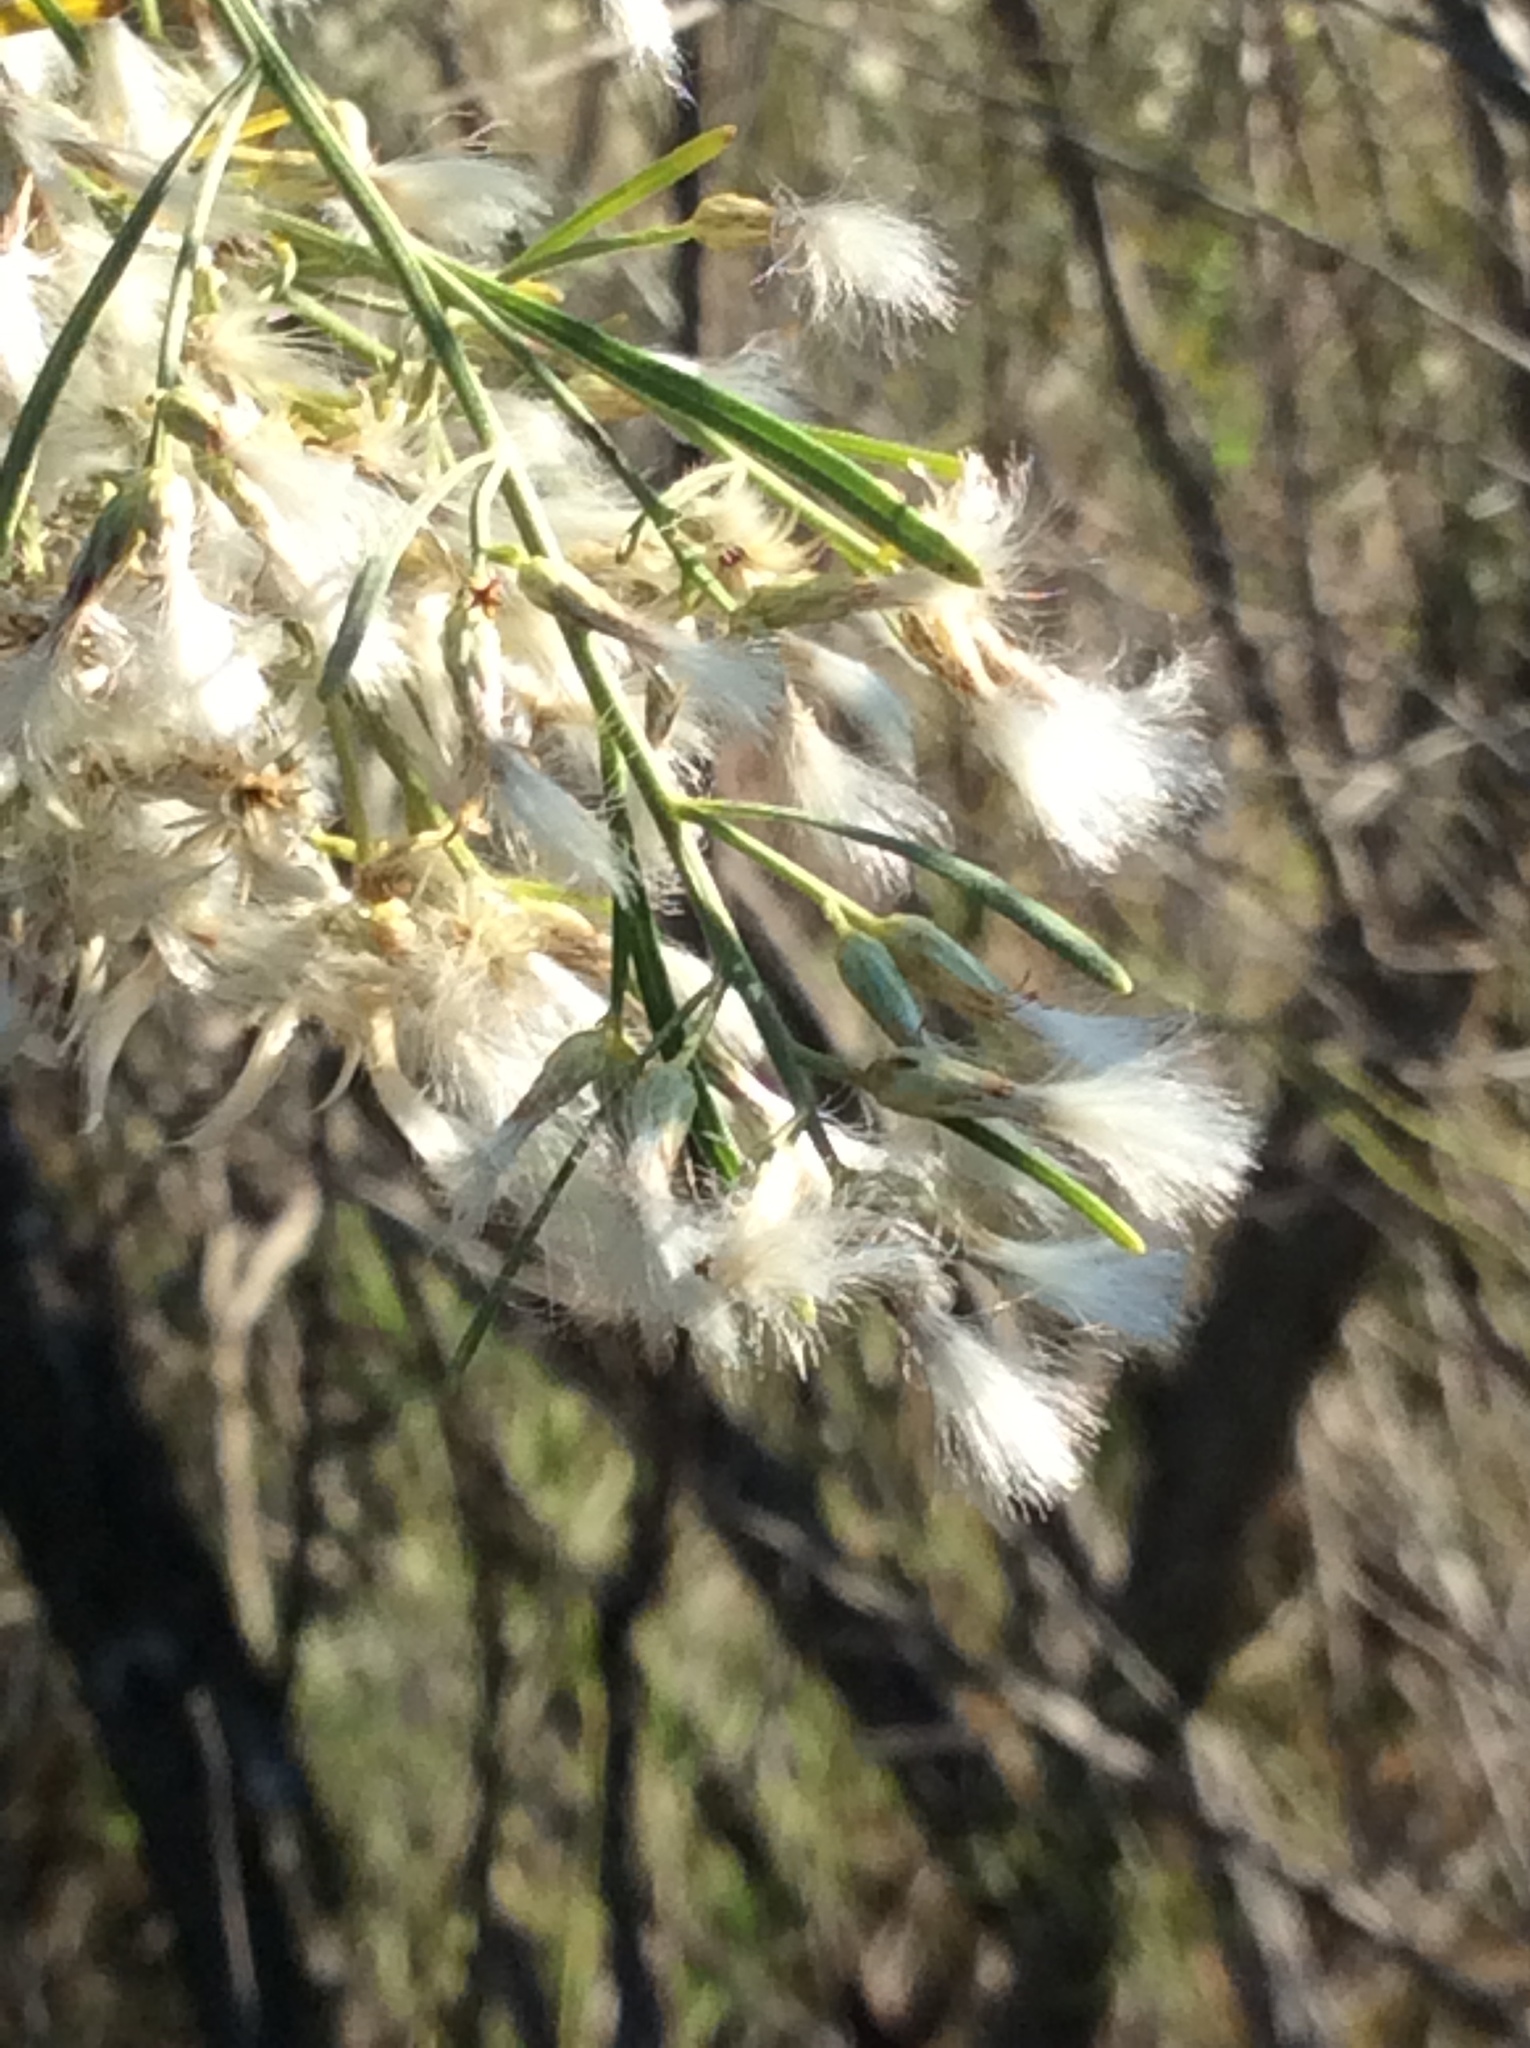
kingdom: Plantae
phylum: Tracheophyta
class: Magnoliopsida
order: Asterales
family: Asteraceae
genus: Baccharis
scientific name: Baccharis neglecta
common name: Roosevelt-weed
